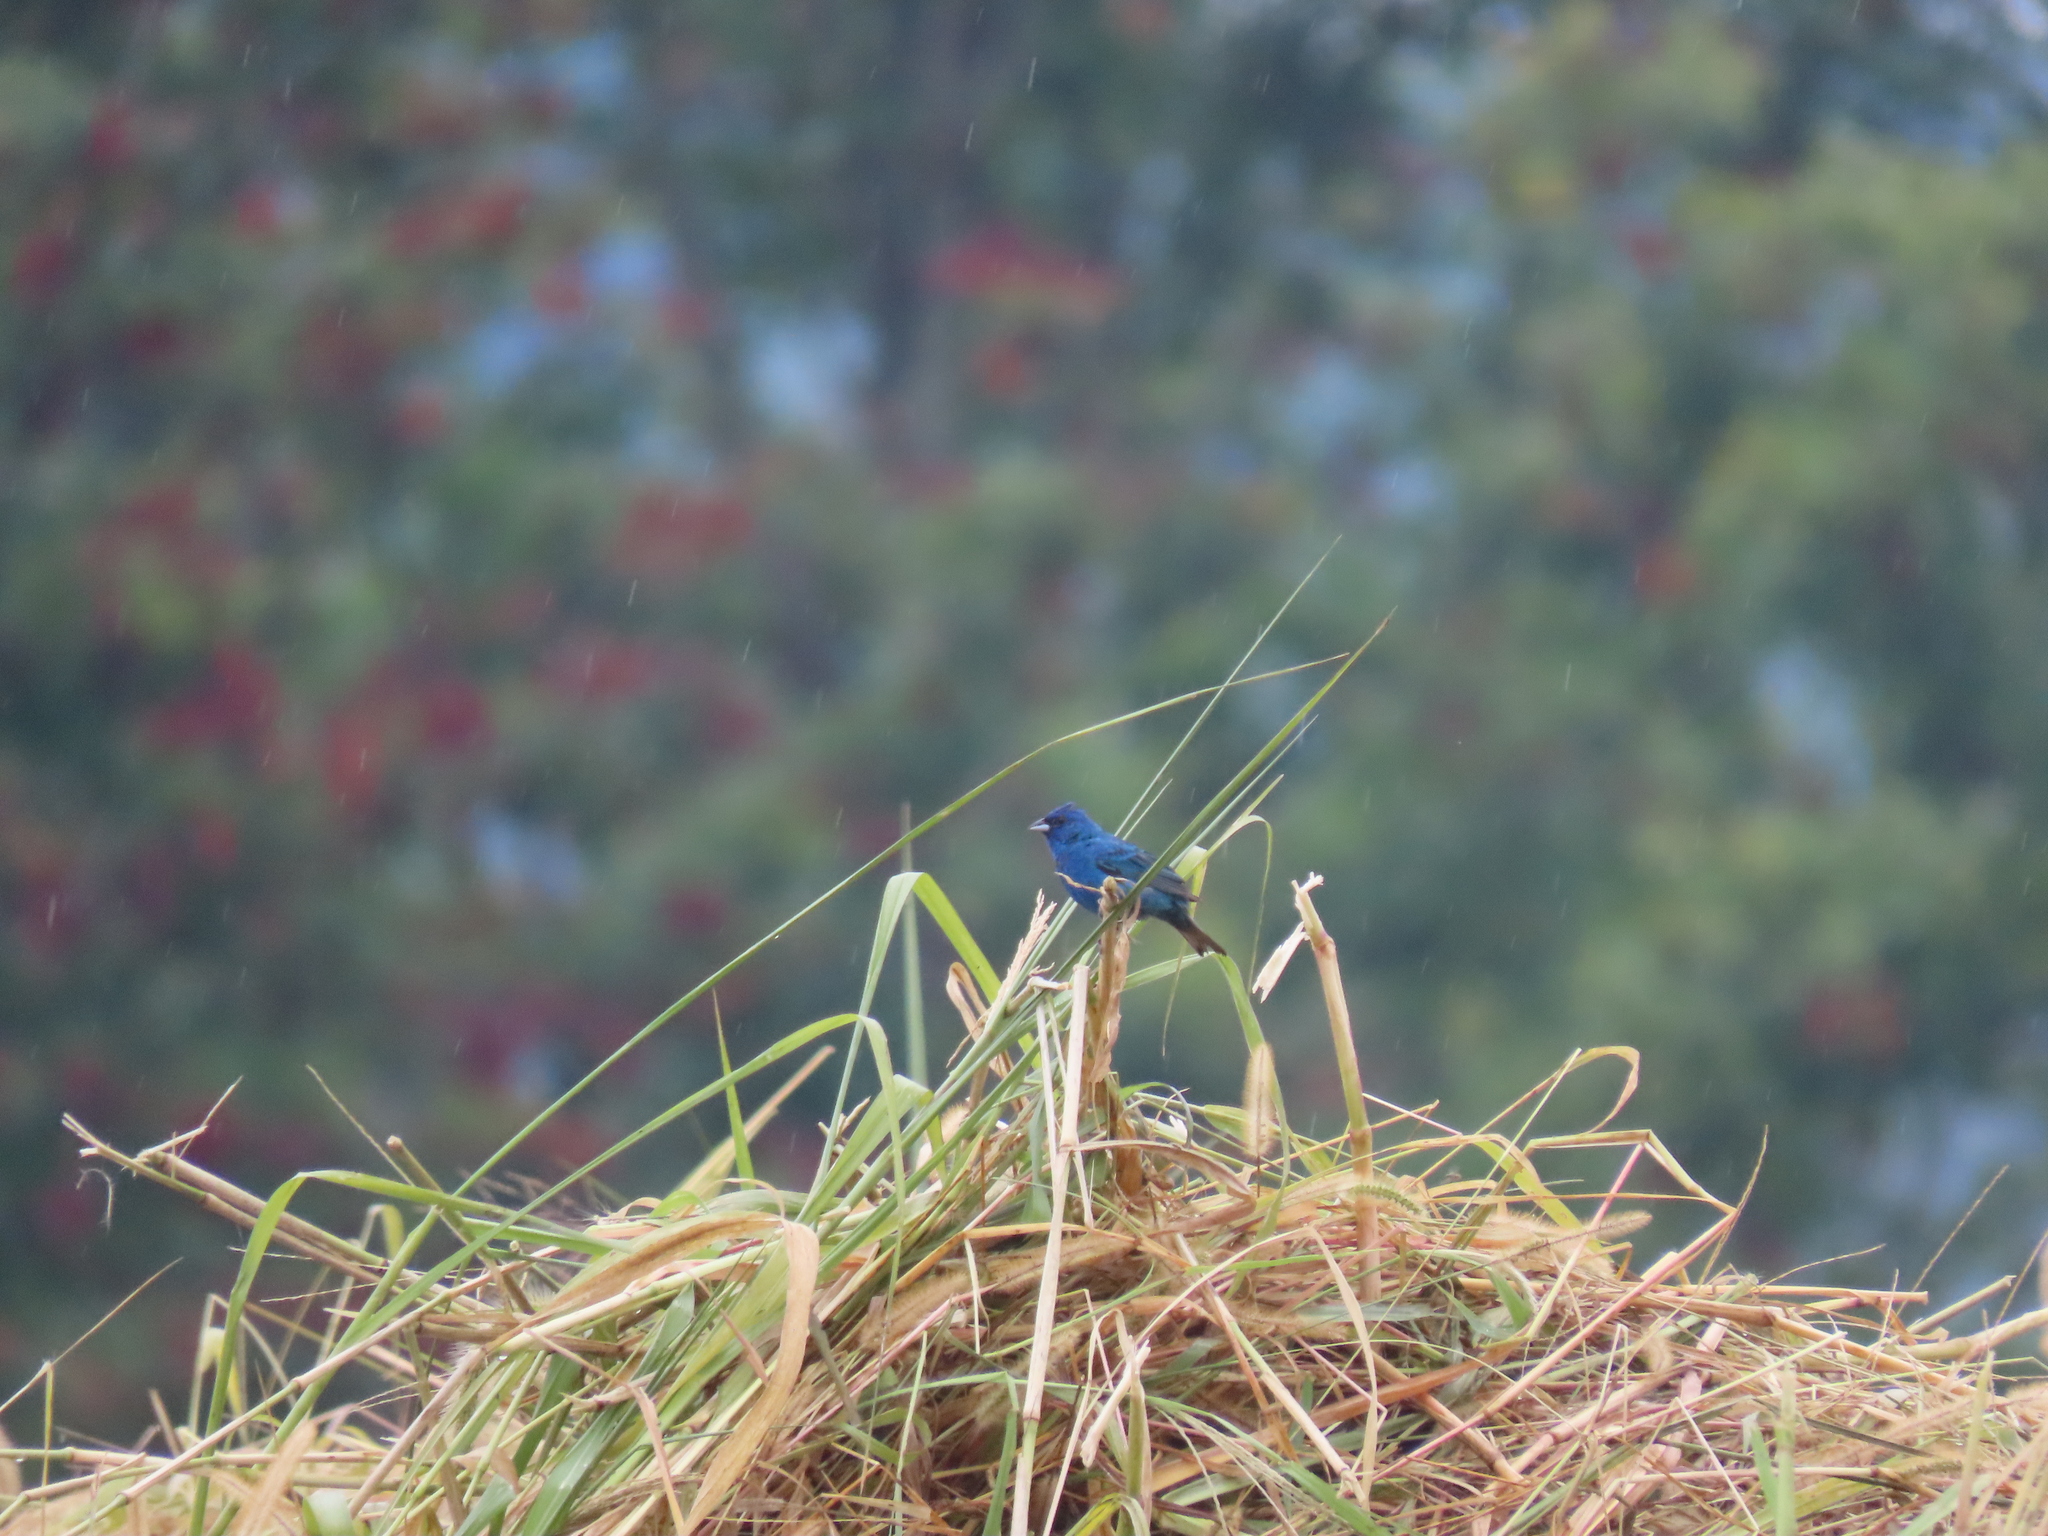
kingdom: Animalia
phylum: Chordata
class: Aves
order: Passeriformes
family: Cardinalidae
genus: Passerina
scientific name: Passerina cyanea
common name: Indigo bunting
